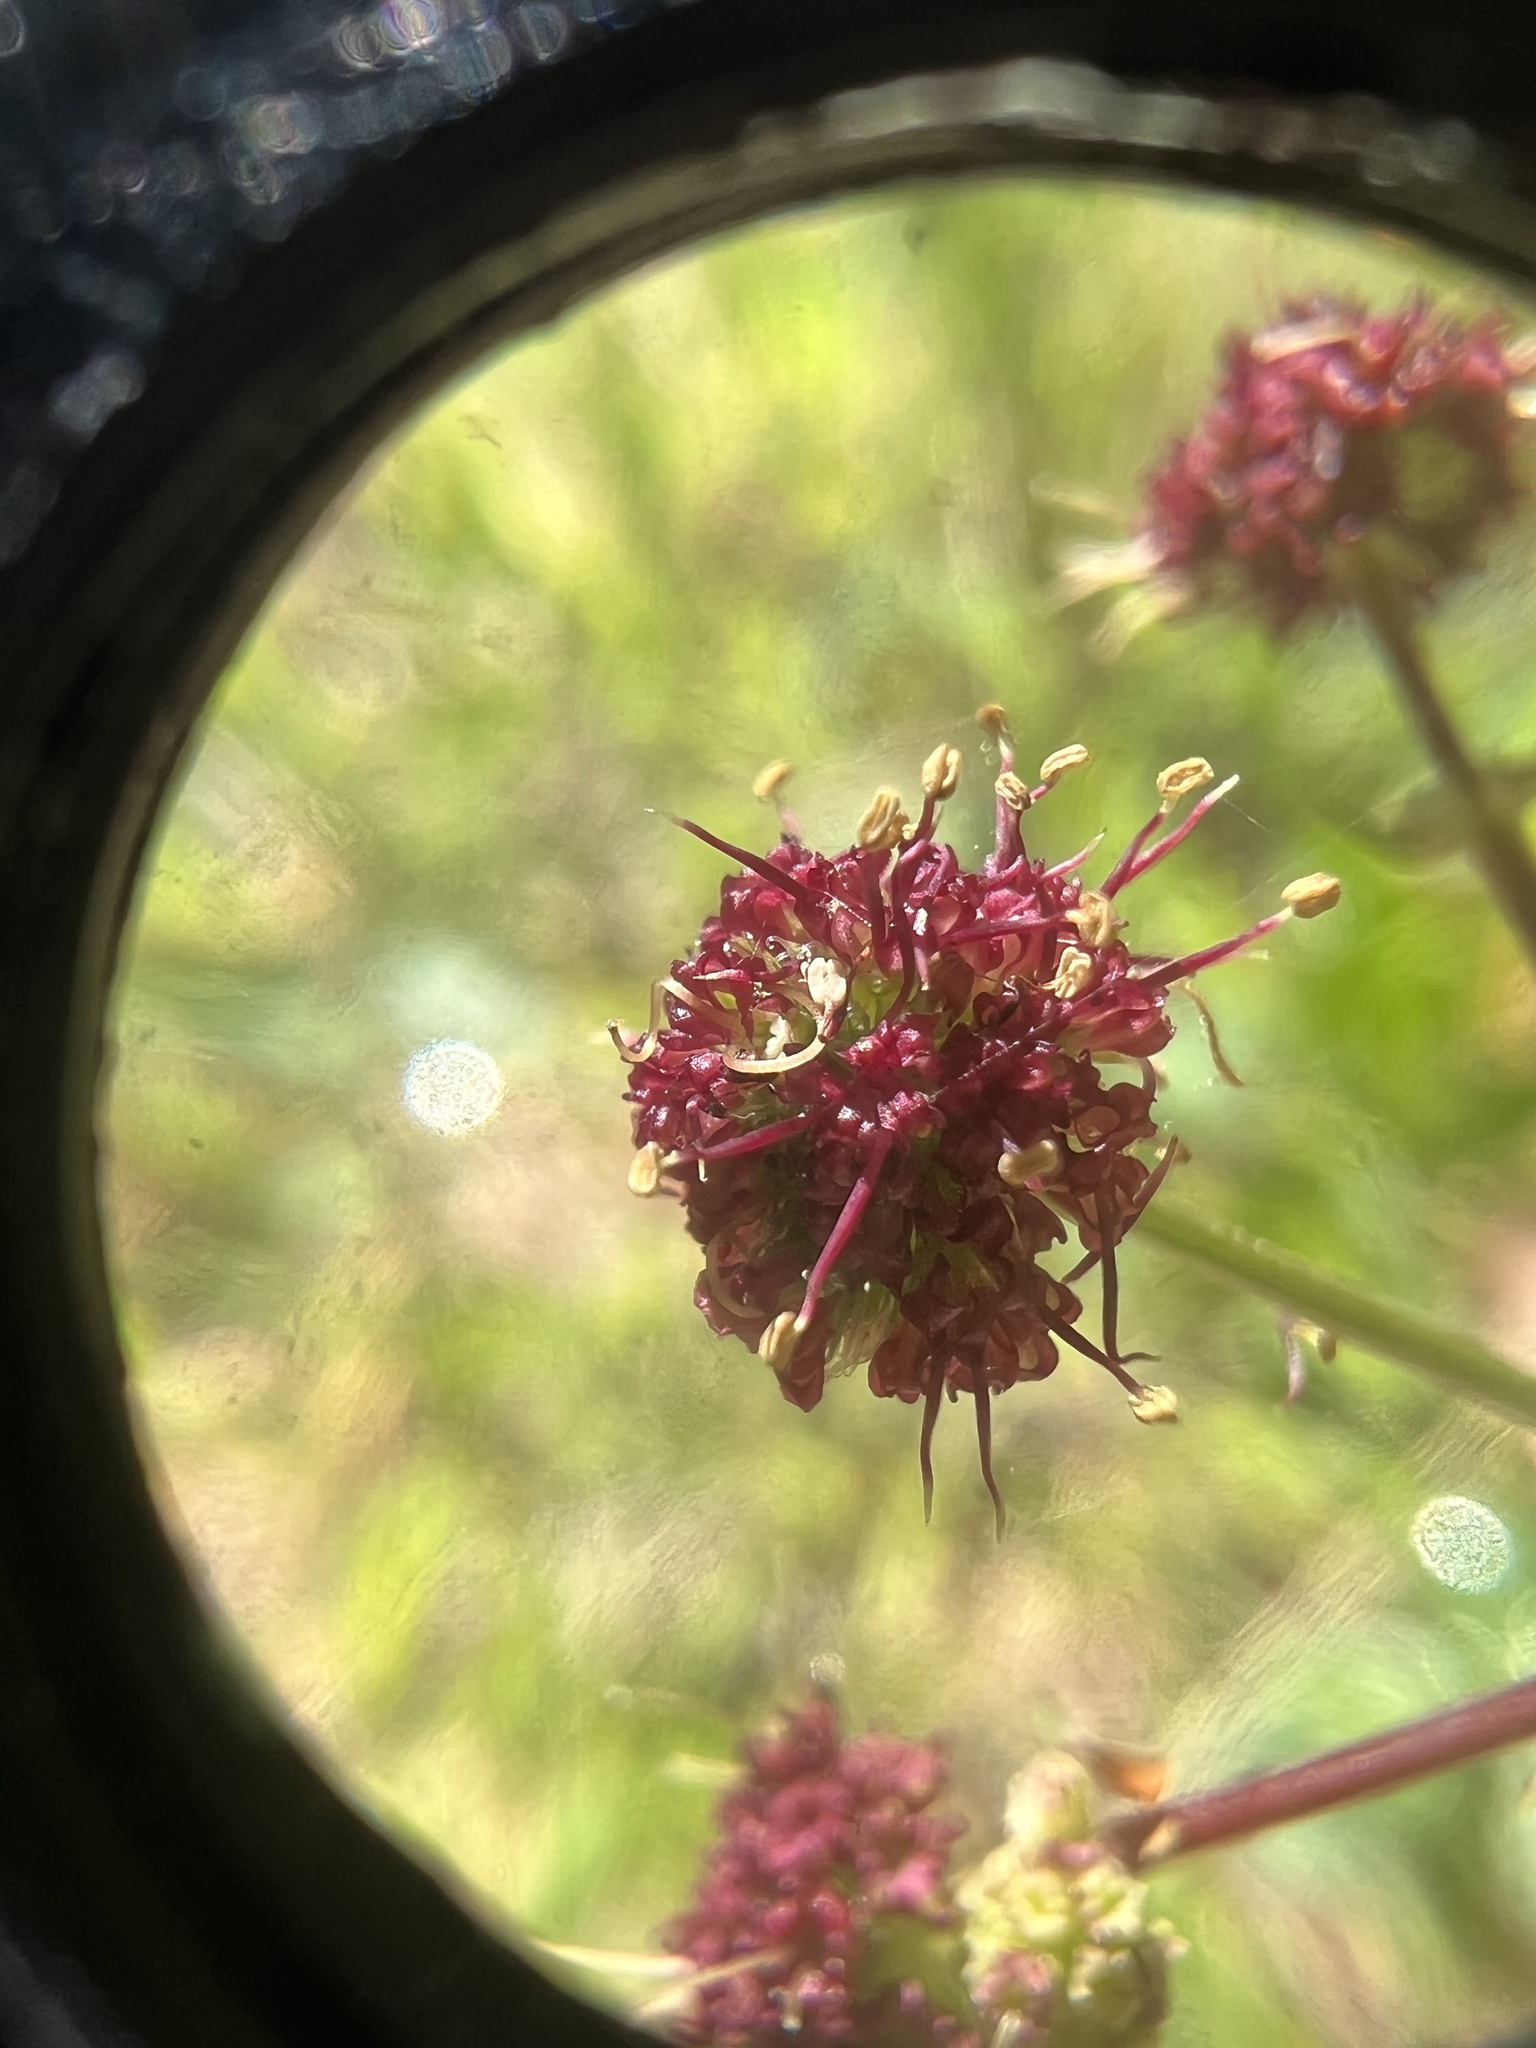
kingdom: Plantae
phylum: Tracheophyta
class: Magnoliopsida
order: Apiales
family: Apiaceae
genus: Sanicula
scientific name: Sanicula bipinnatifida
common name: Shoe-buttons
